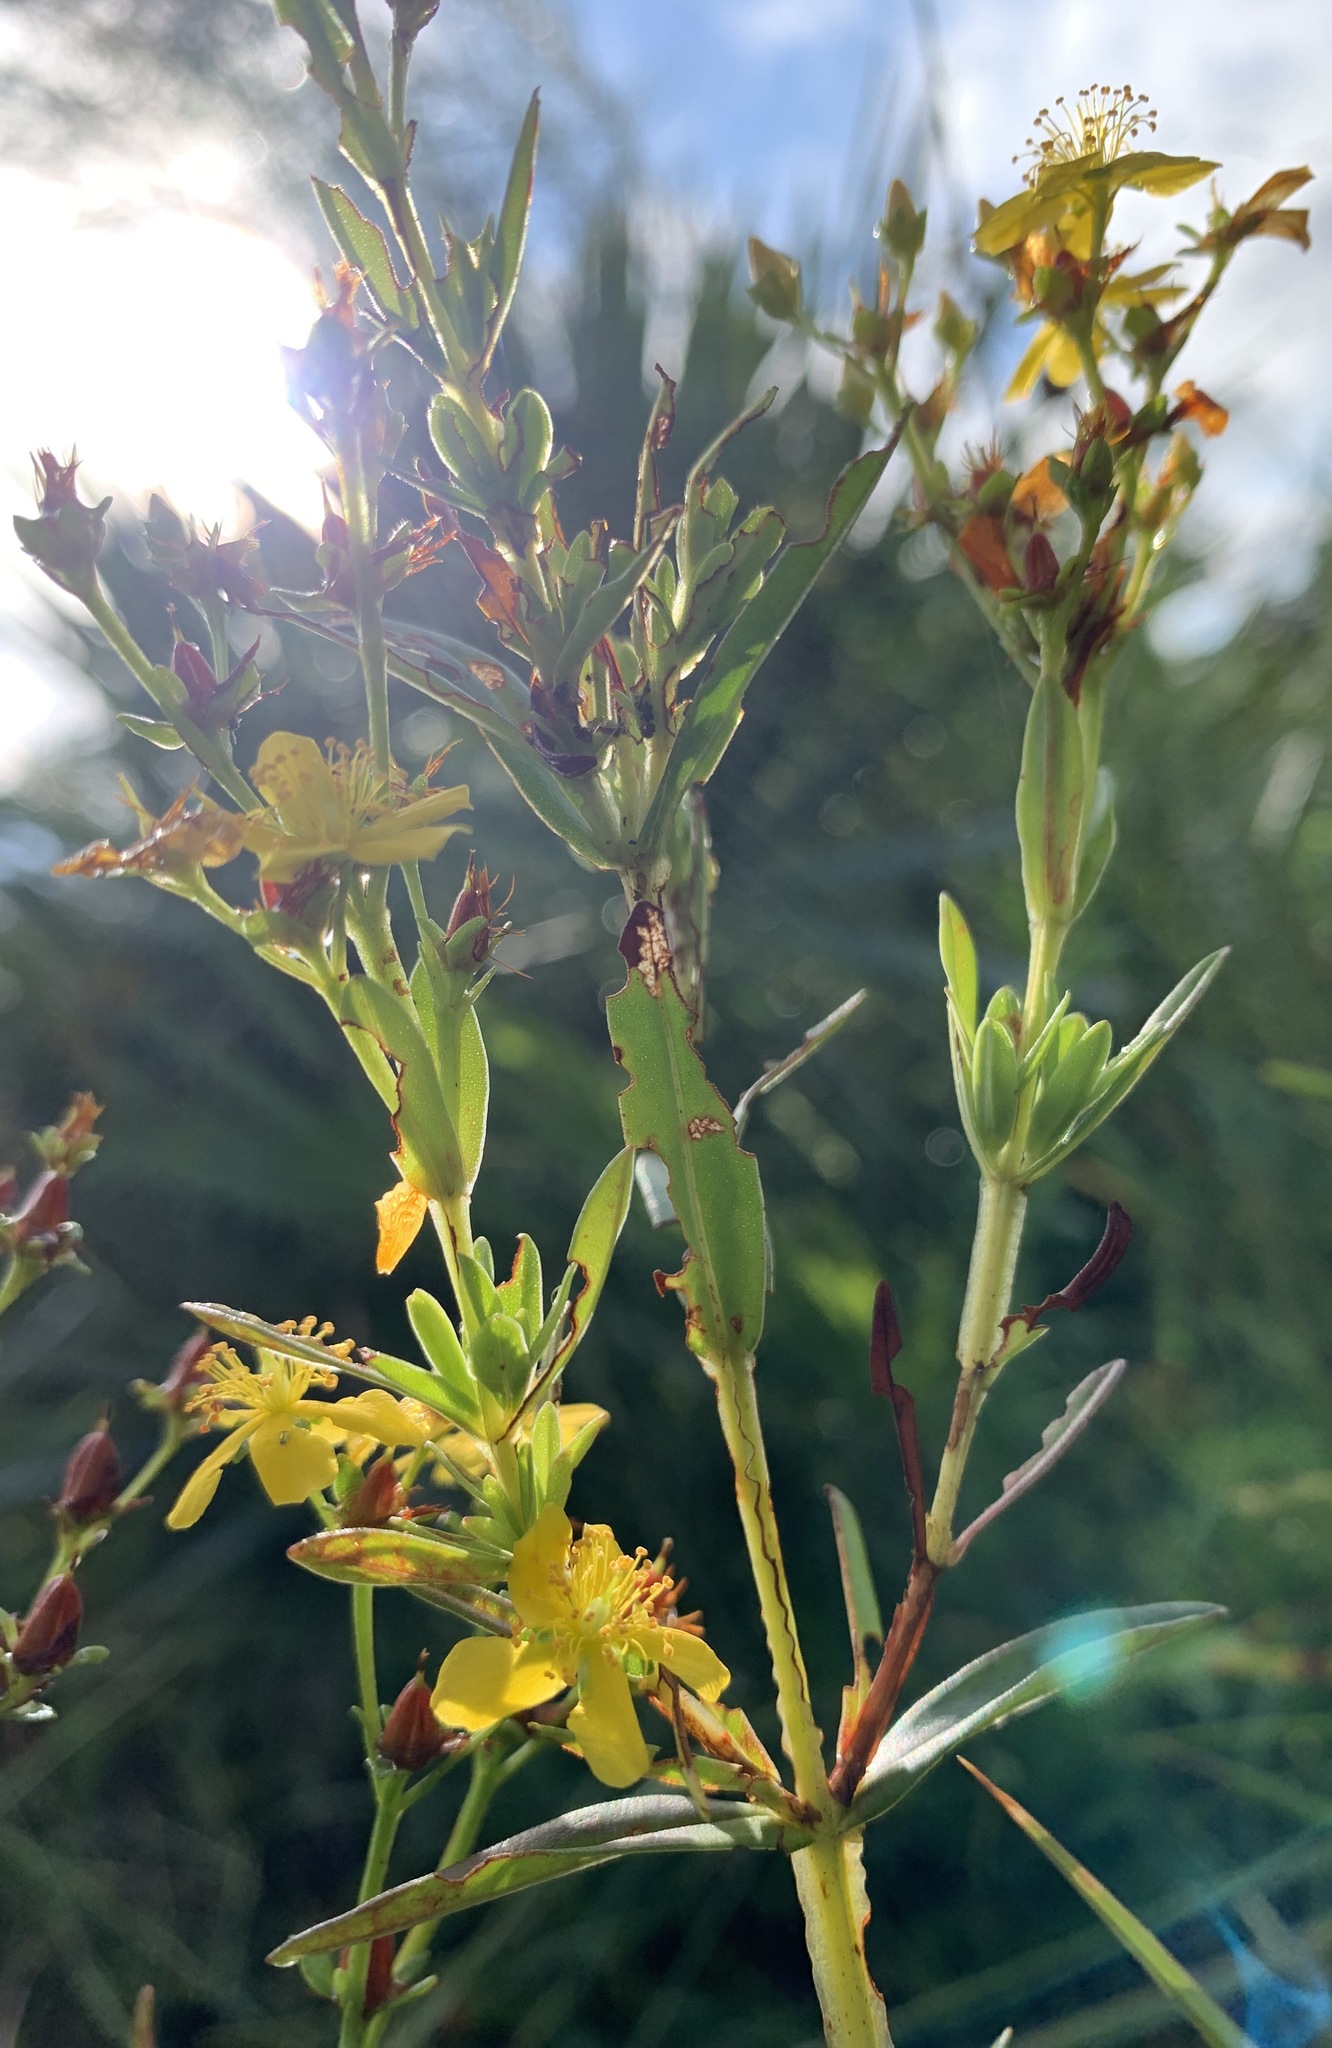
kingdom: Plantae
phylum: Tracheophyta
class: Magnoliopsida
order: Malpighiales
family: Hypericaceae
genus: Hypericum
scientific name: Hypericum cistifolium
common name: Round-pod st. john's-wort
